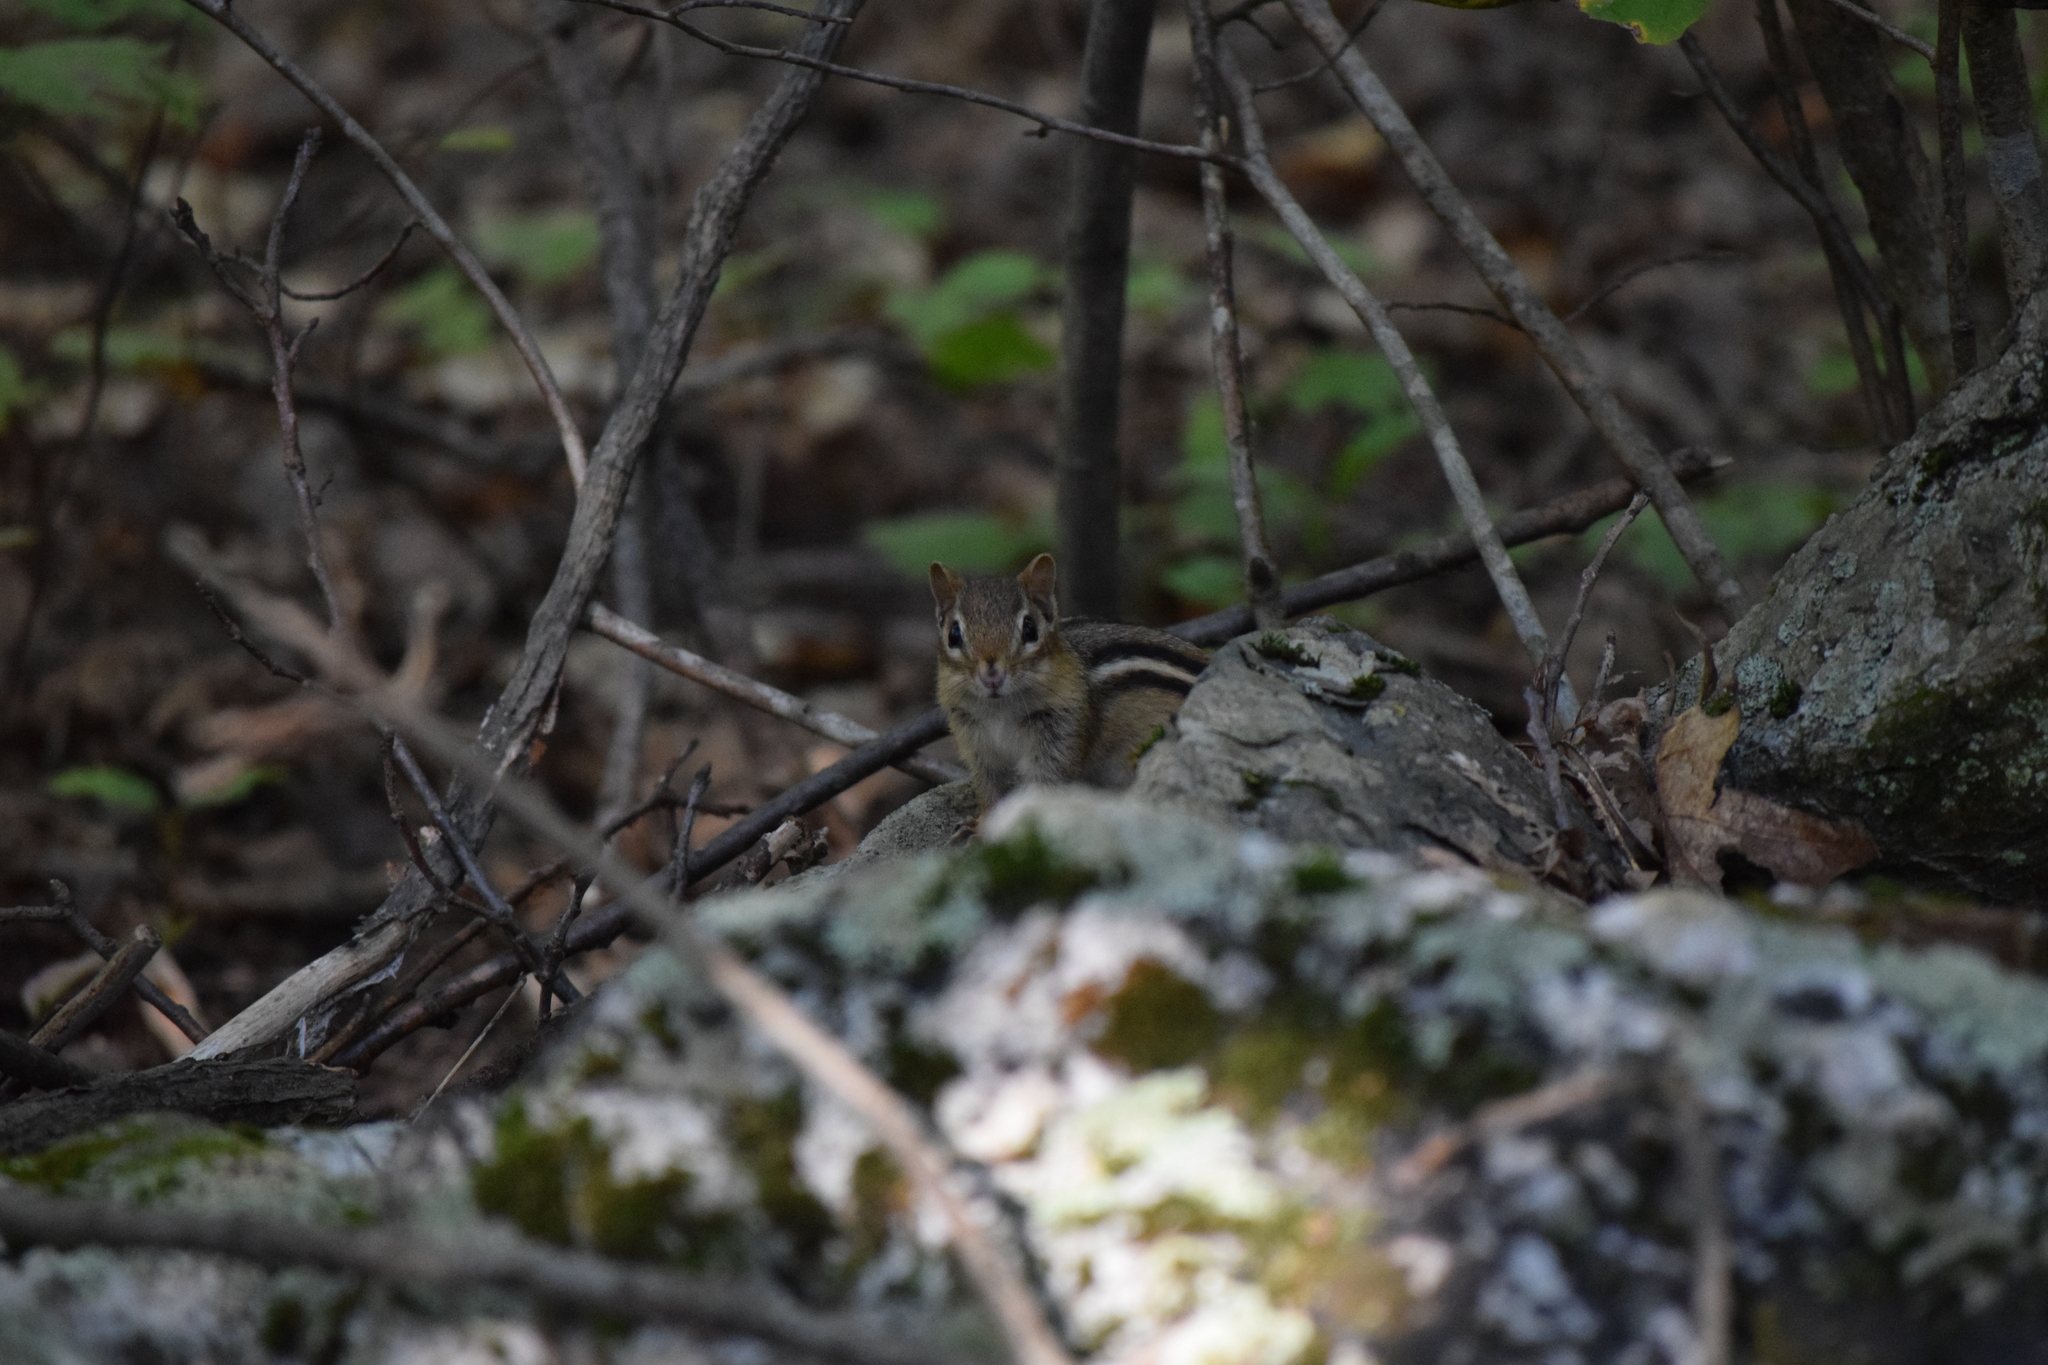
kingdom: Animalia
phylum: Chordata
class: Mammalia
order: Rodentia
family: Sciuridae
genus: Tamias
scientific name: Tamias striatus
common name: Eastern chipmunk
